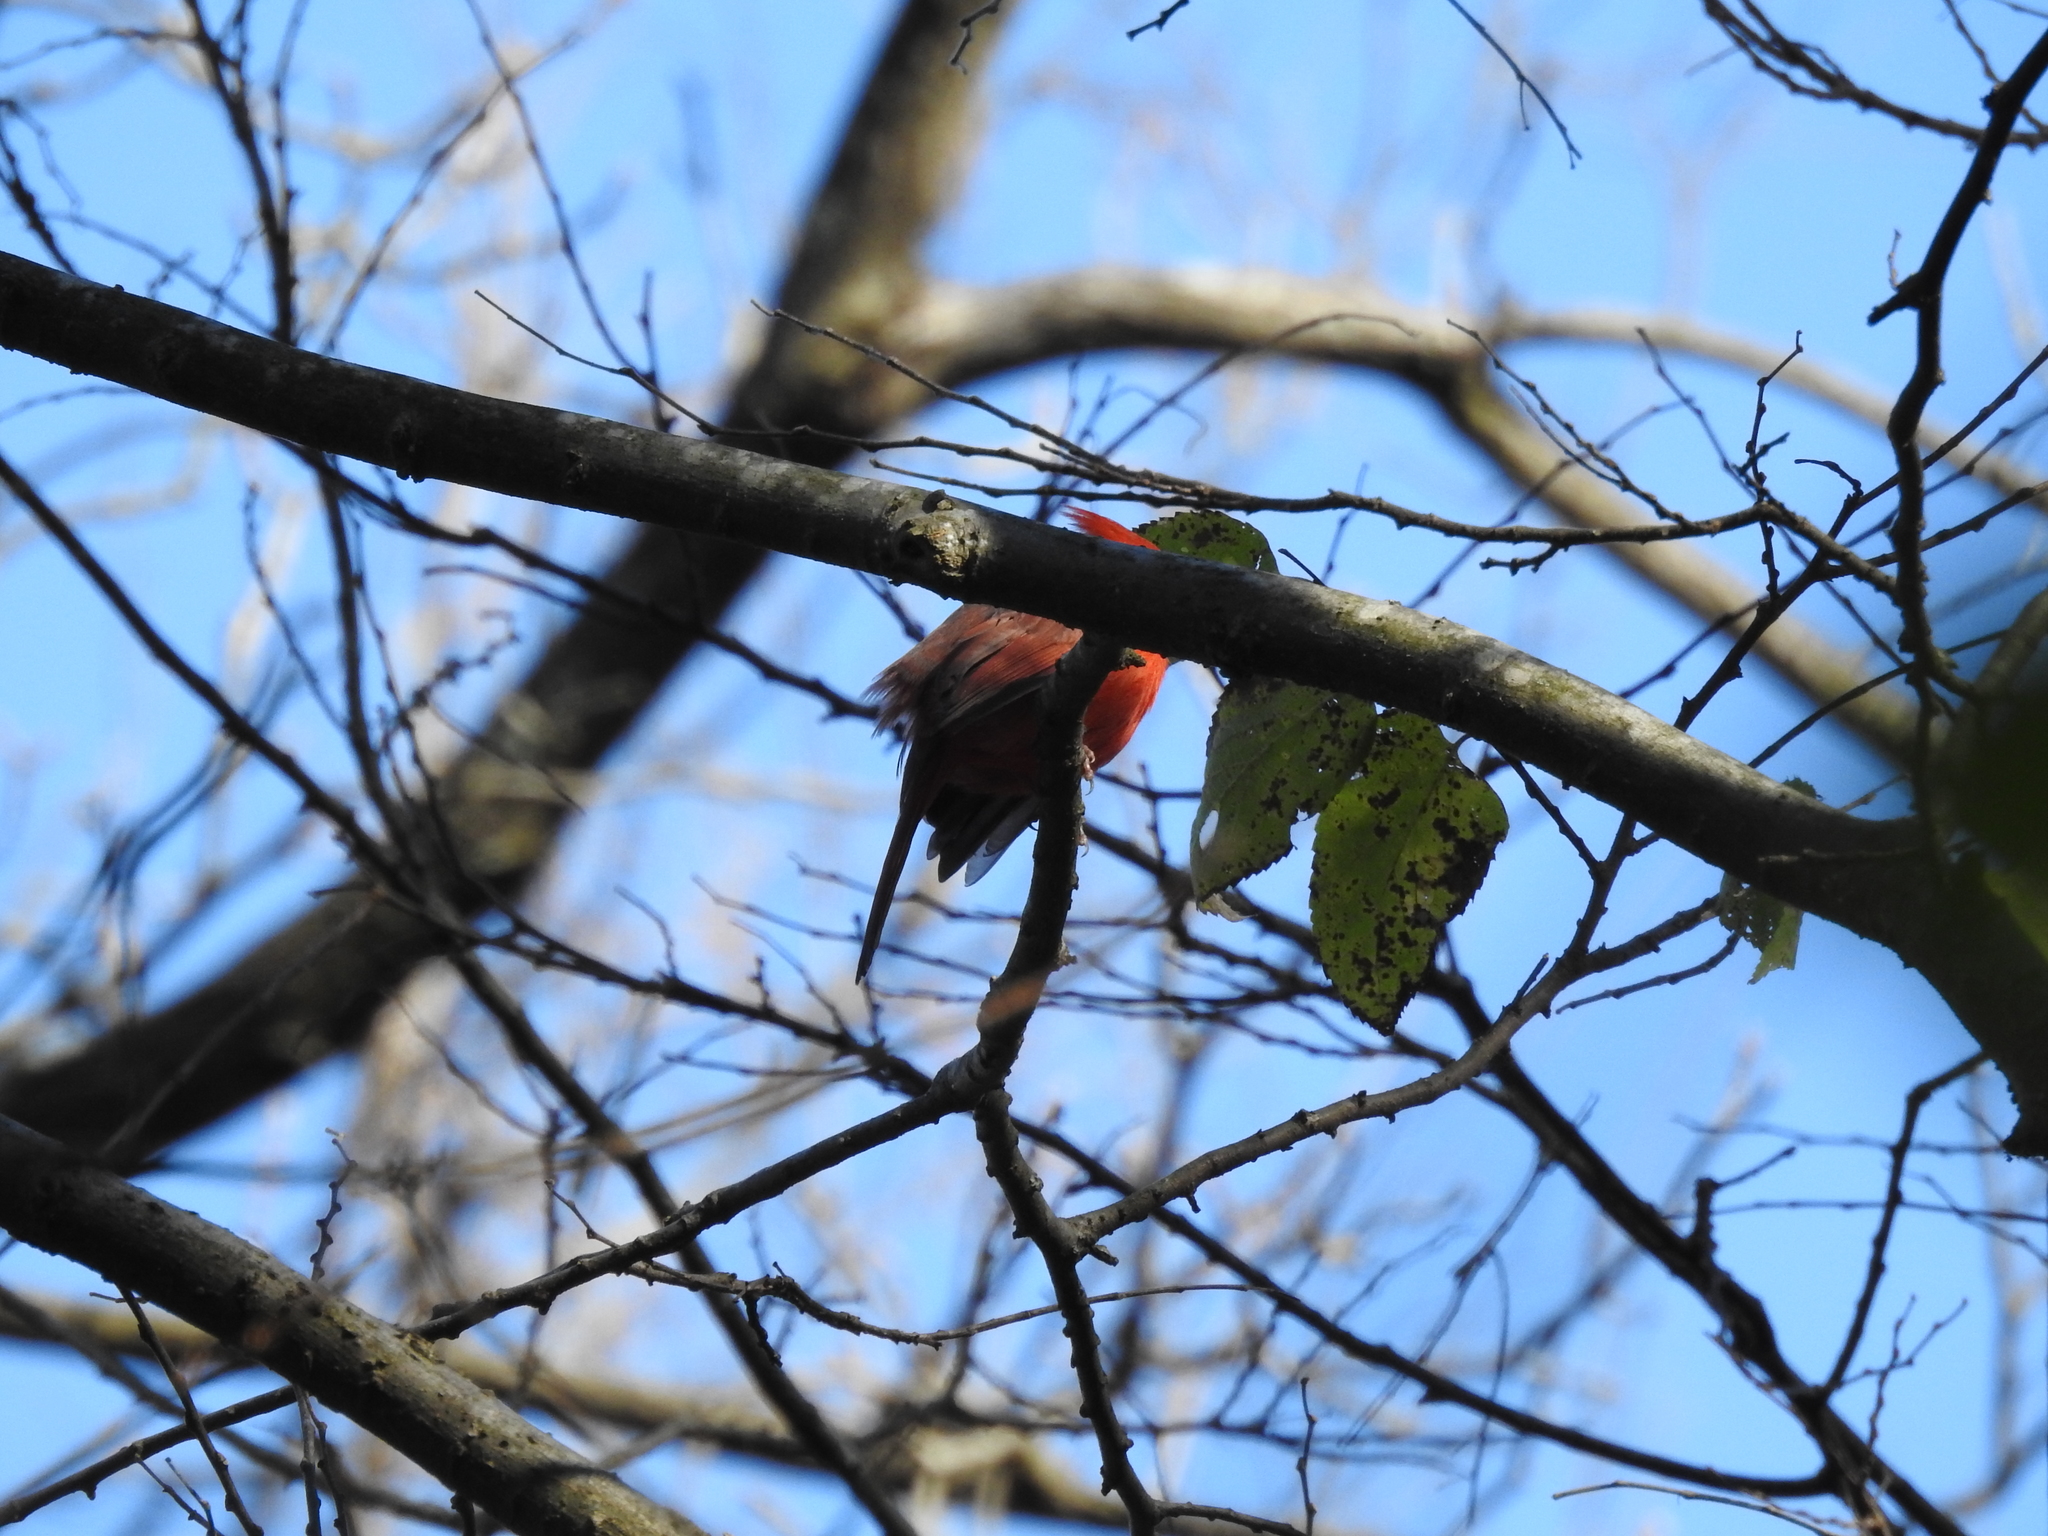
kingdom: Animalia
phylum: Chordata
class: Aves
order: Passeriformes
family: Cardinalidae
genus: Cardinalis
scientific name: Cardinalis cardinalis
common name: Northern cardinal
